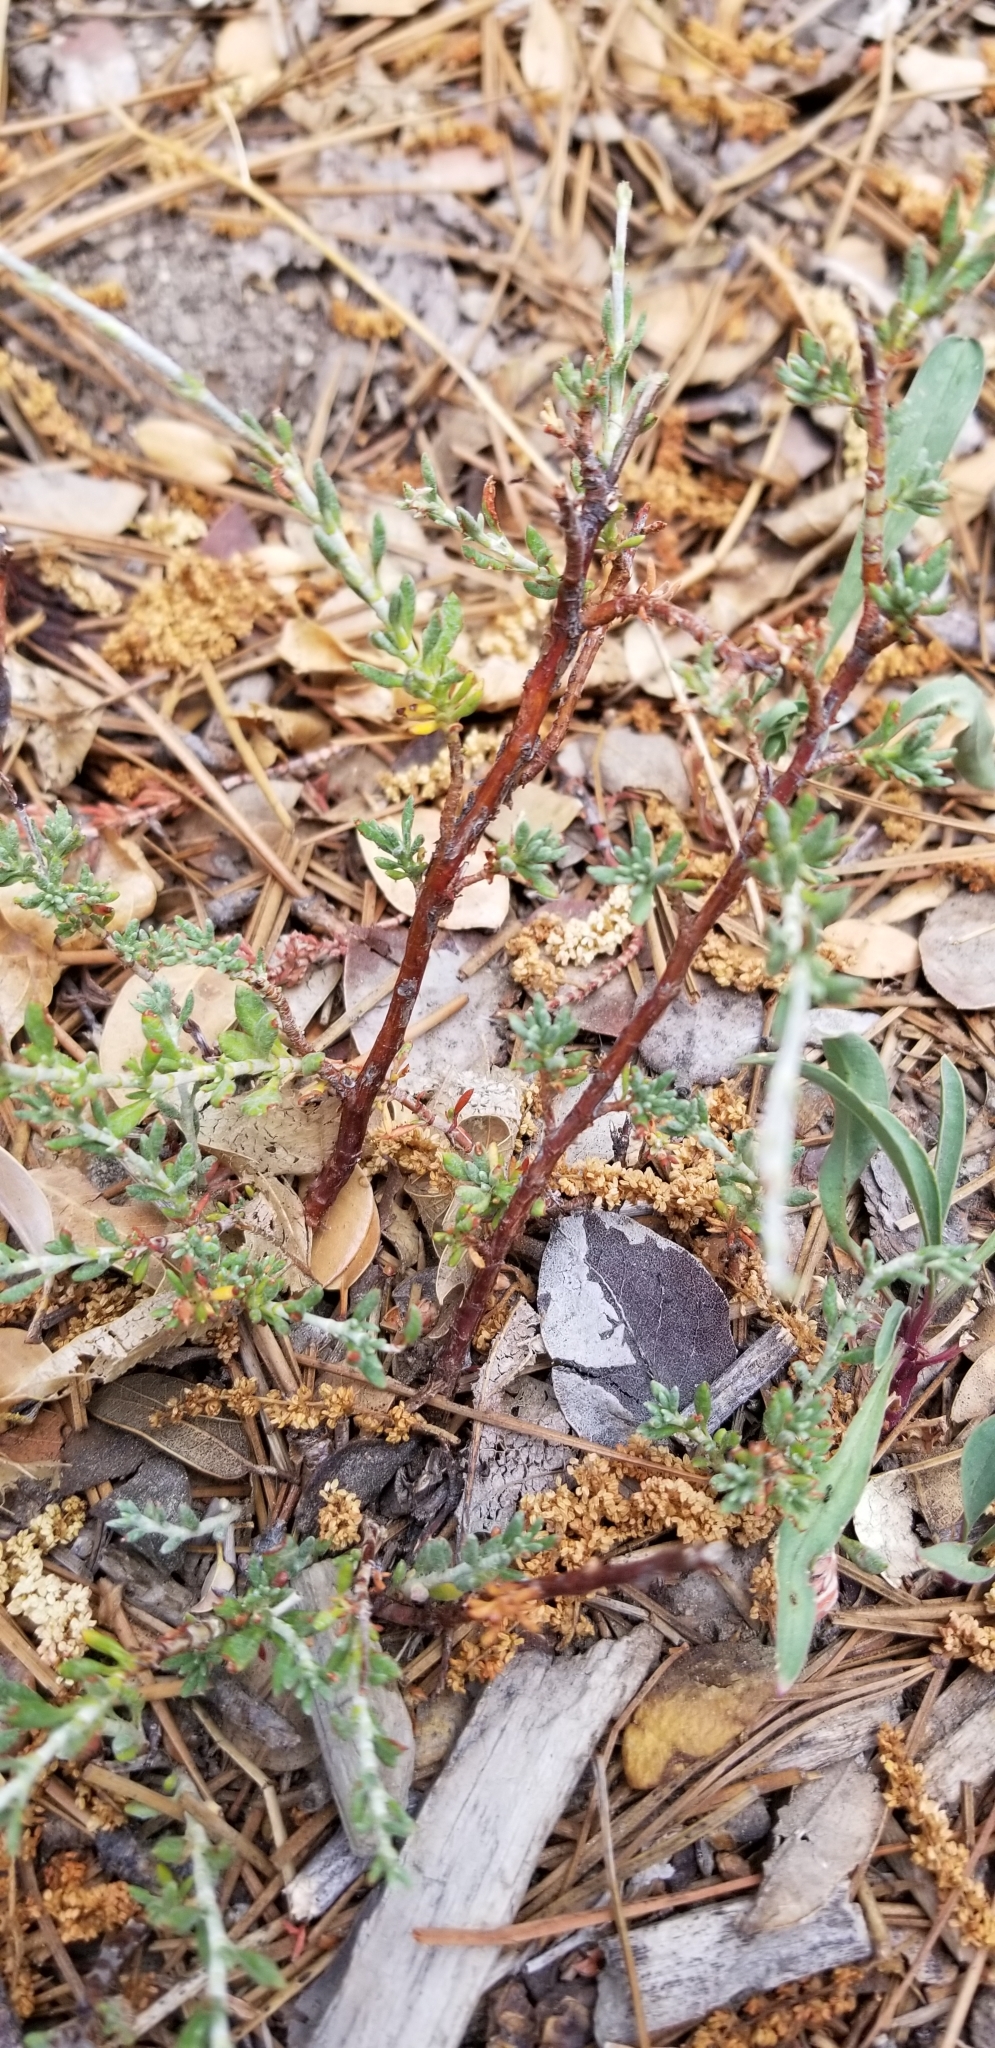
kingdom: Plantae
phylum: Tracheophyta
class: Magnoliopsida
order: Caryophyllales
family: Polygonaceae
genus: Eriogonum
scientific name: Eriogonum wrightii
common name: Bastard-sage
